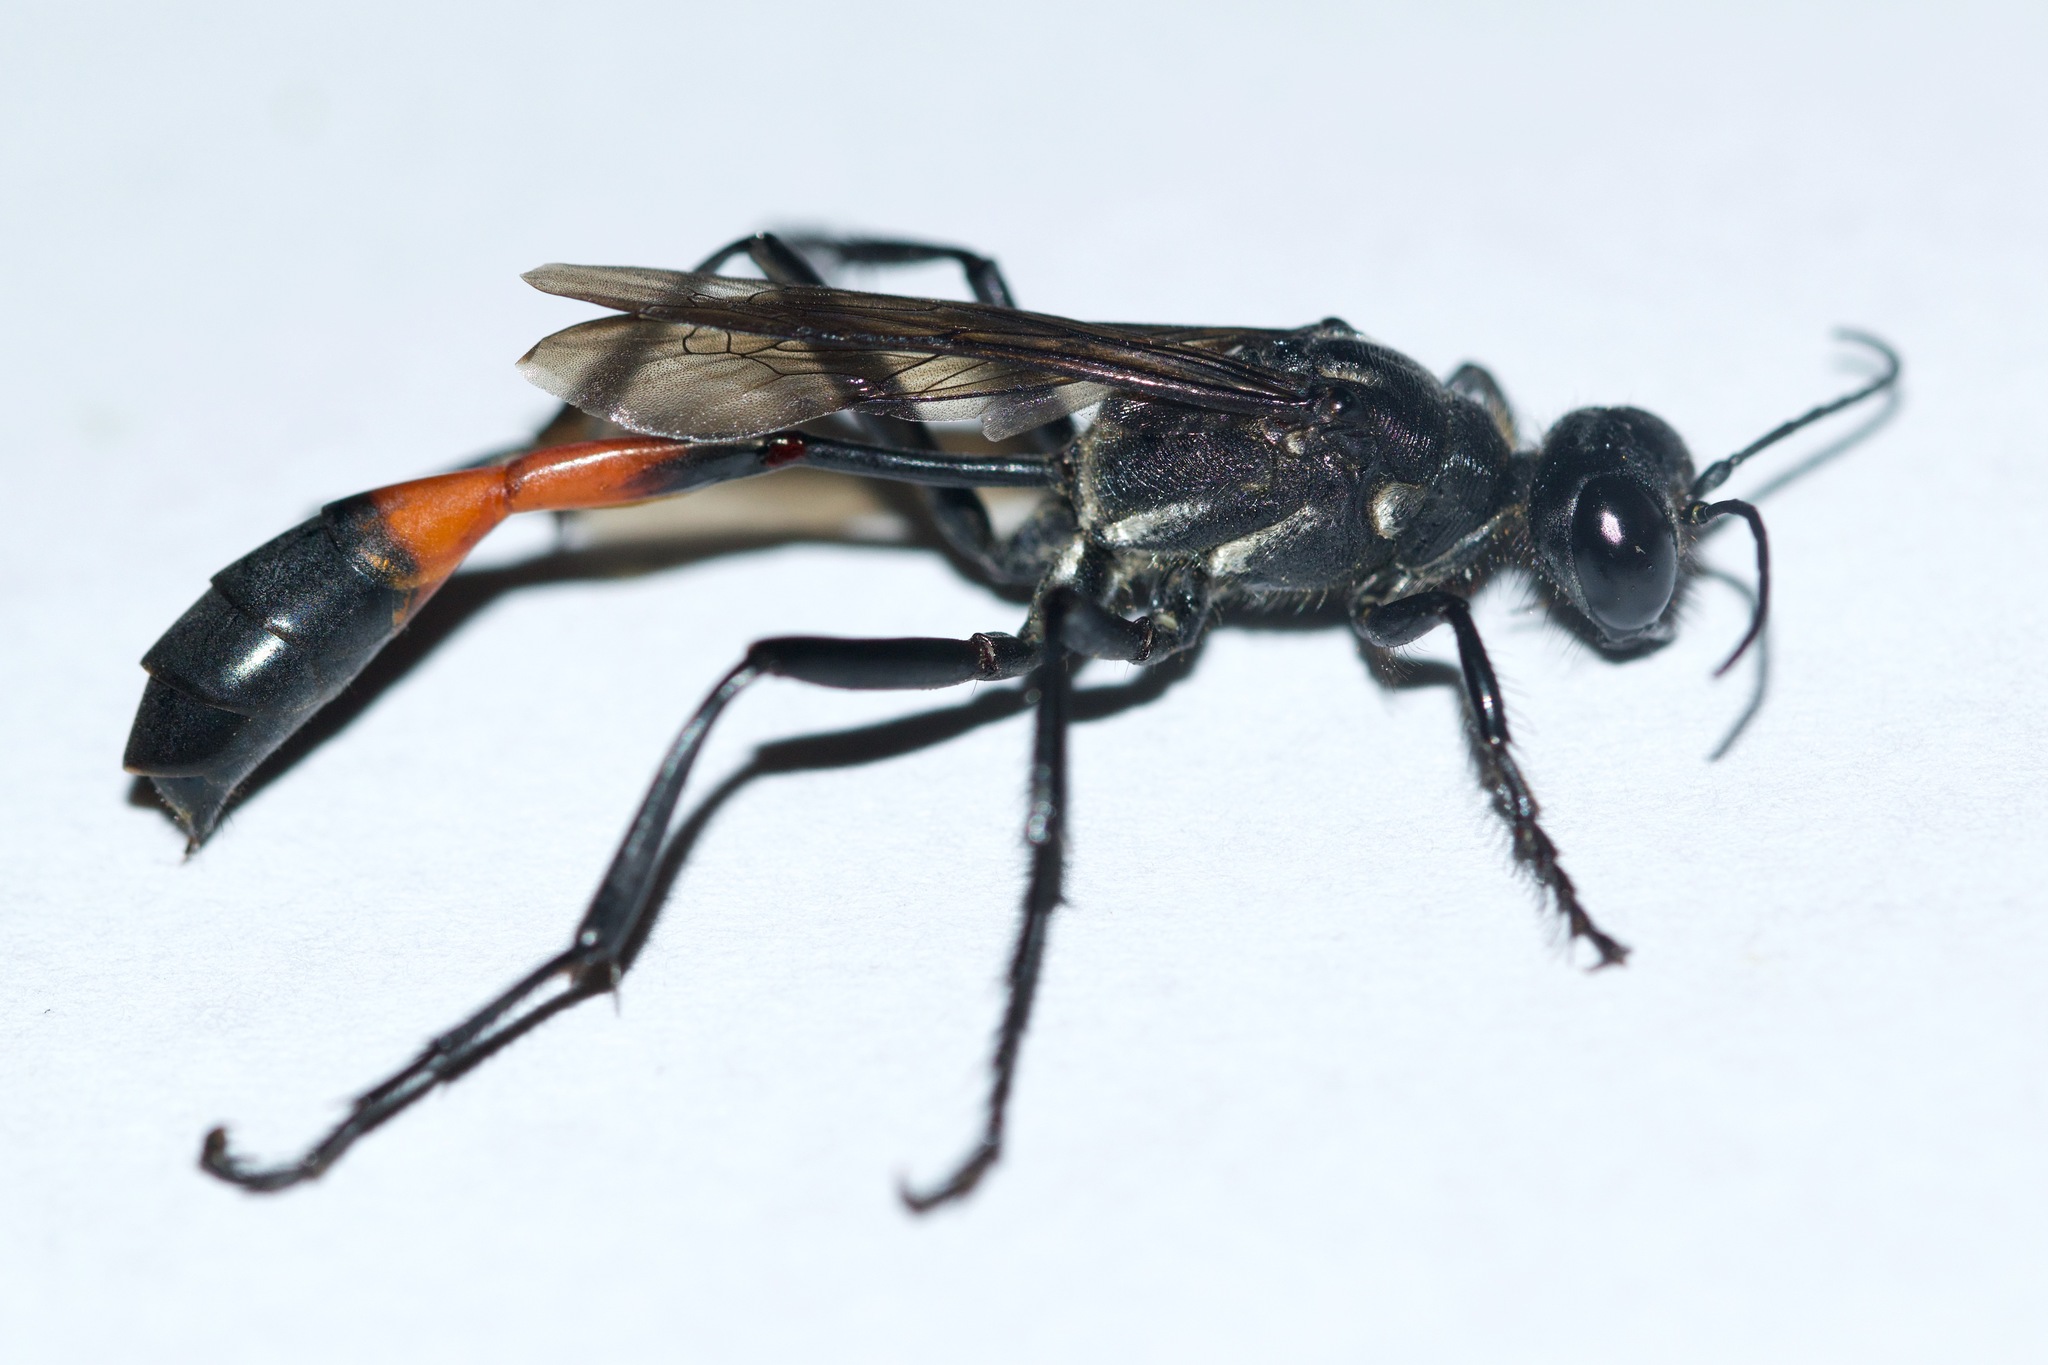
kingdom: Animalia
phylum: Arthropoda
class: Insecta
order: Hymenoptera
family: Sphecidae
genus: Ammophila
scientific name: Ammophila procera
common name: Common thread-waisted wasp
